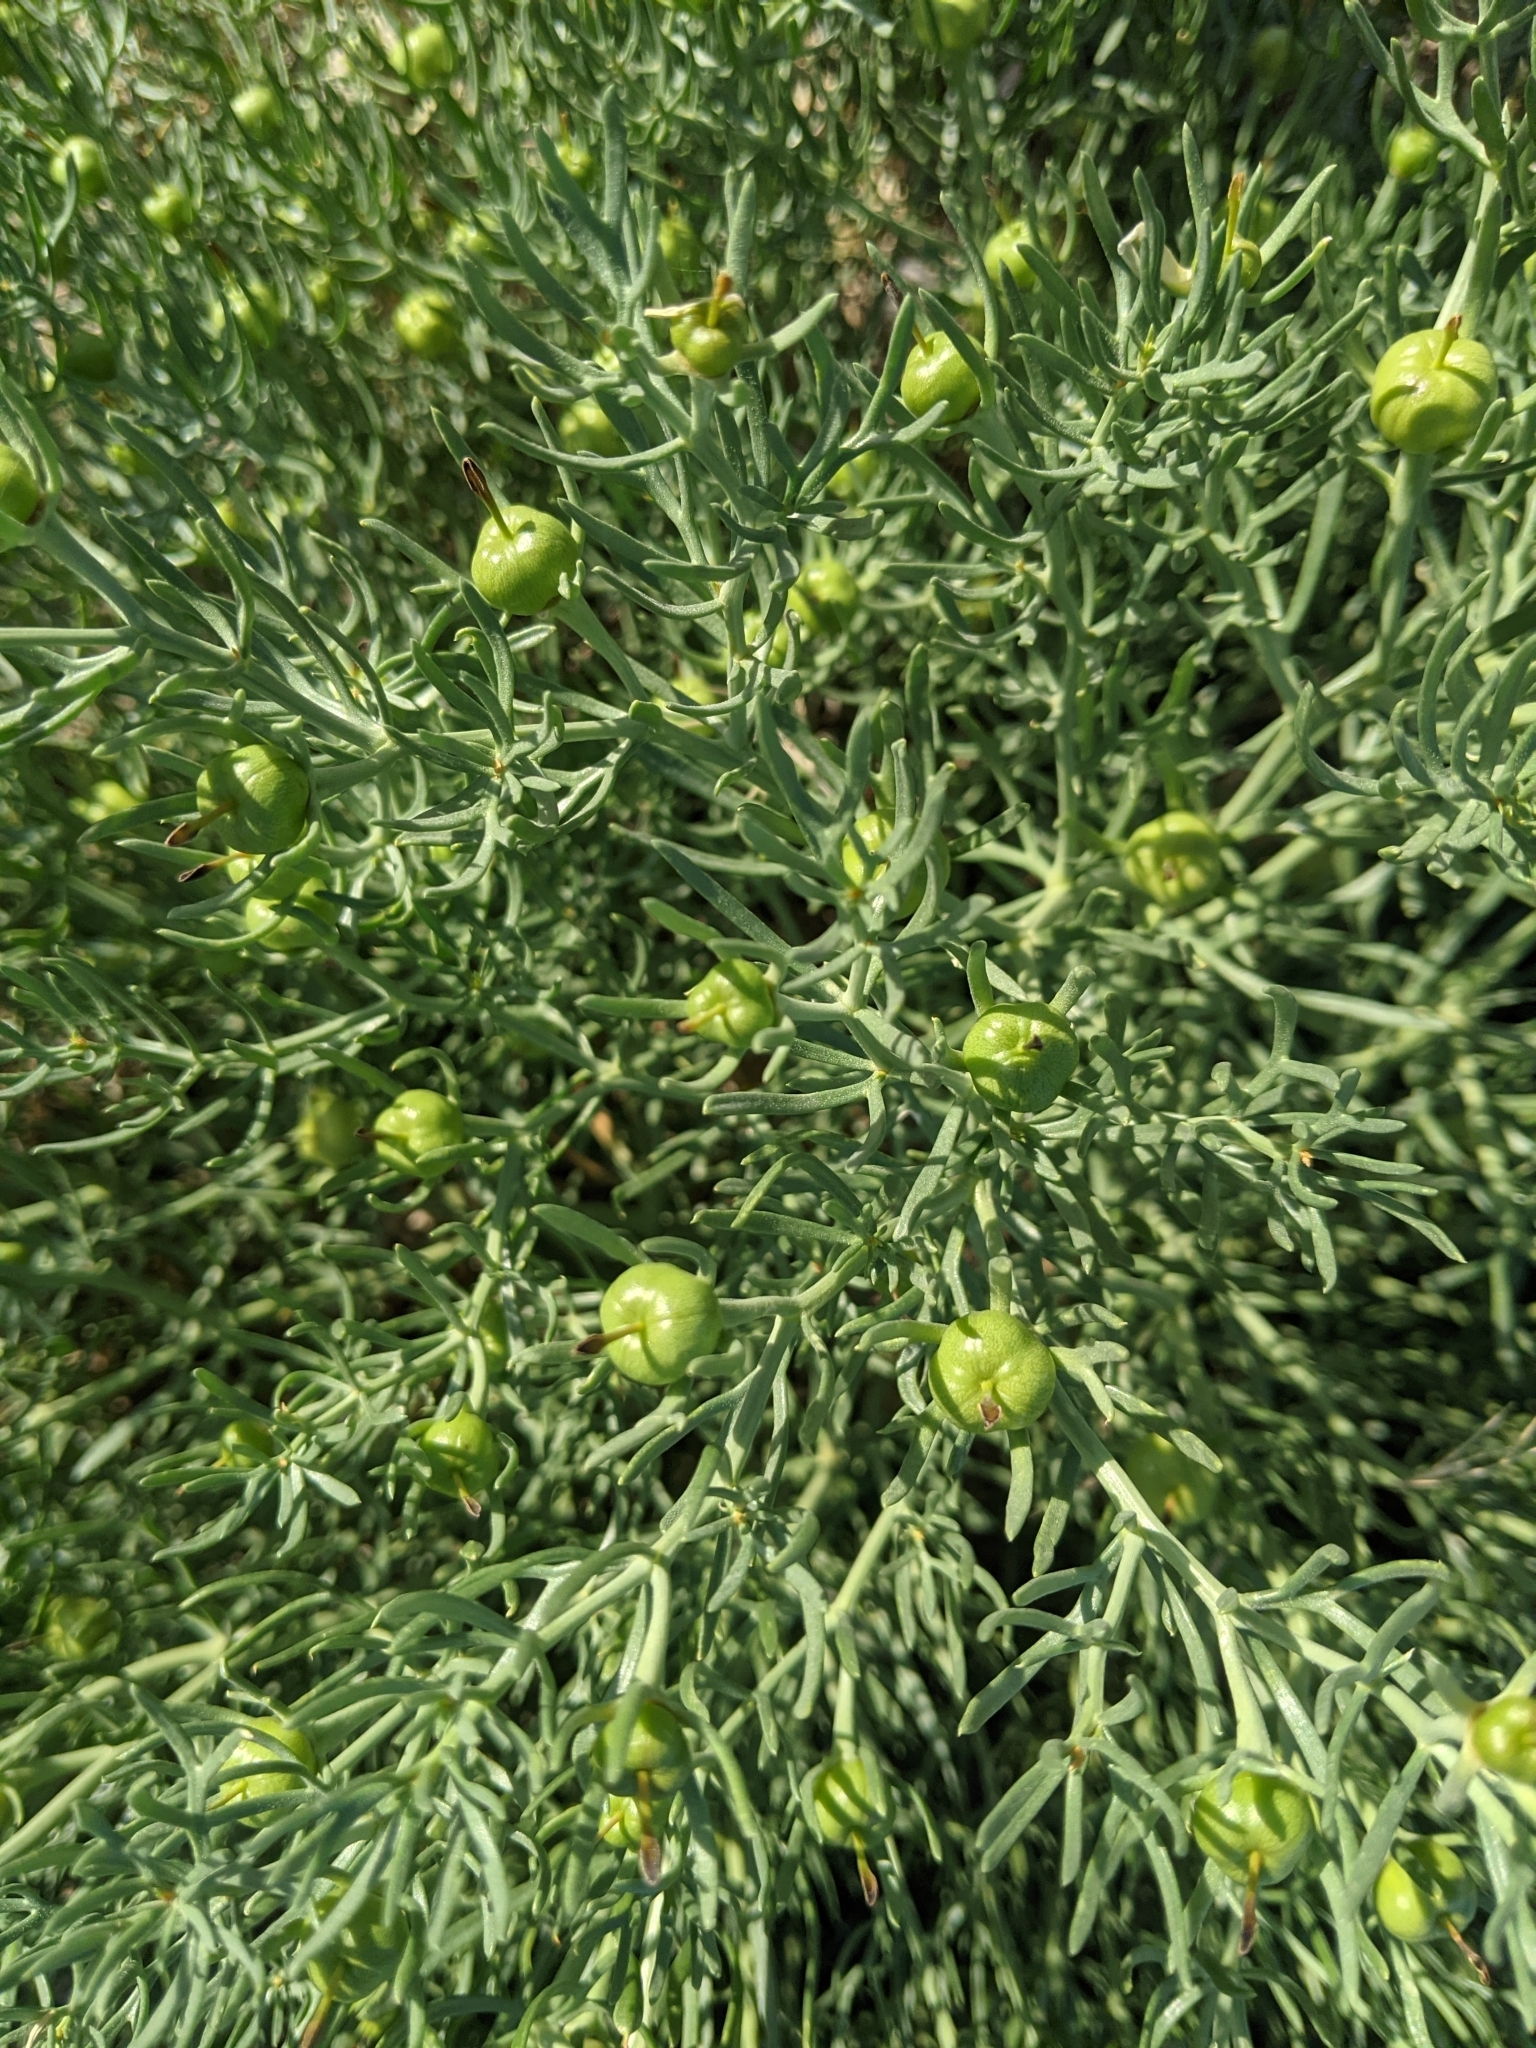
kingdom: Plantae
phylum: Tracheophyta
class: Magnoliopsida
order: Sapindales
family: Tetradiclidaceae
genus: Peganum
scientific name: Peganum harmala
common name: Harmal peganum
